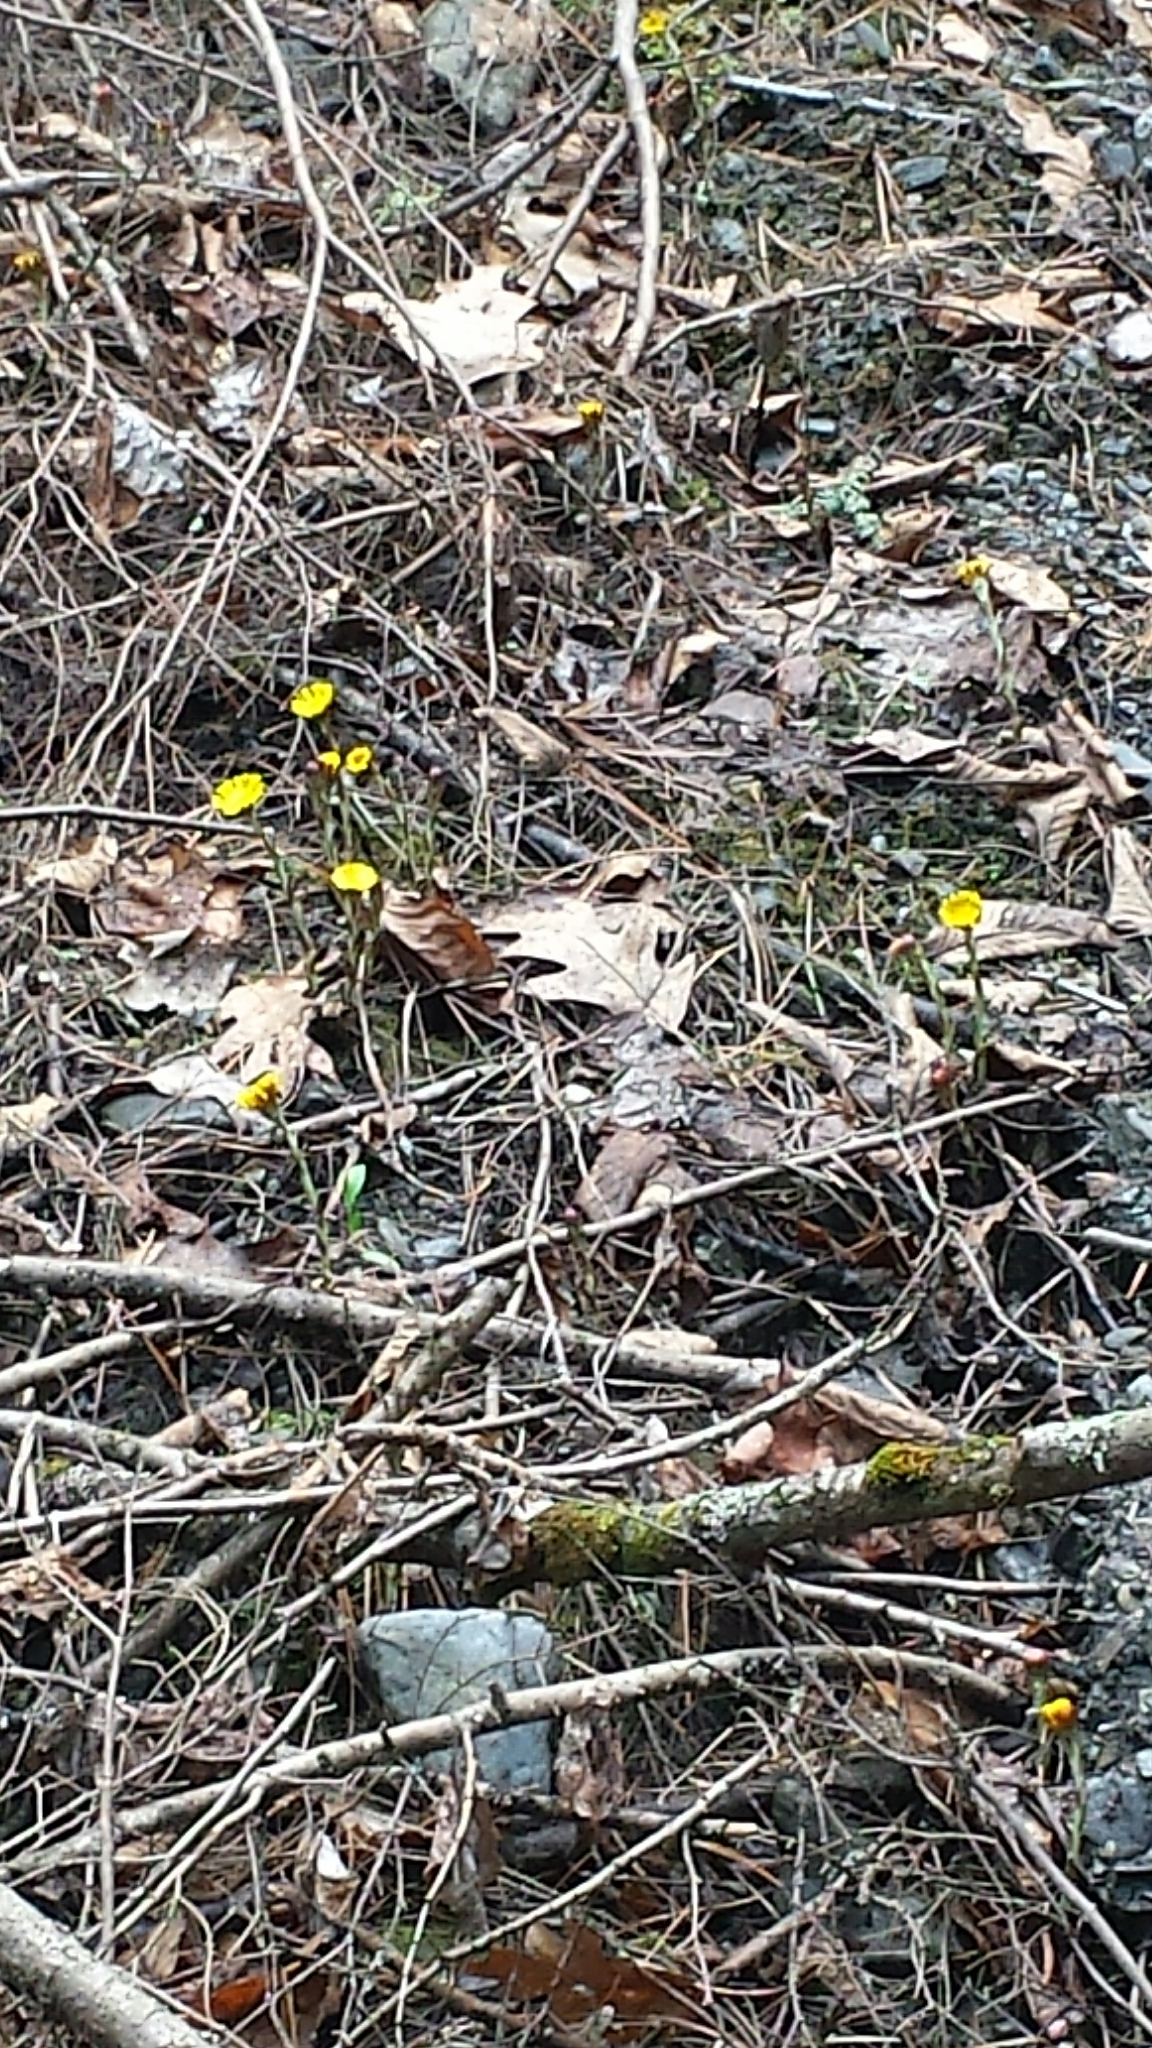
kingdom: Plantae
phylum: Tracheophyta
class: Magnoliopsida
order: Asterales
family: Asteraceae
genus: Tussilago
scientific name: Tussilago farfara
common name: Coltsfoot
